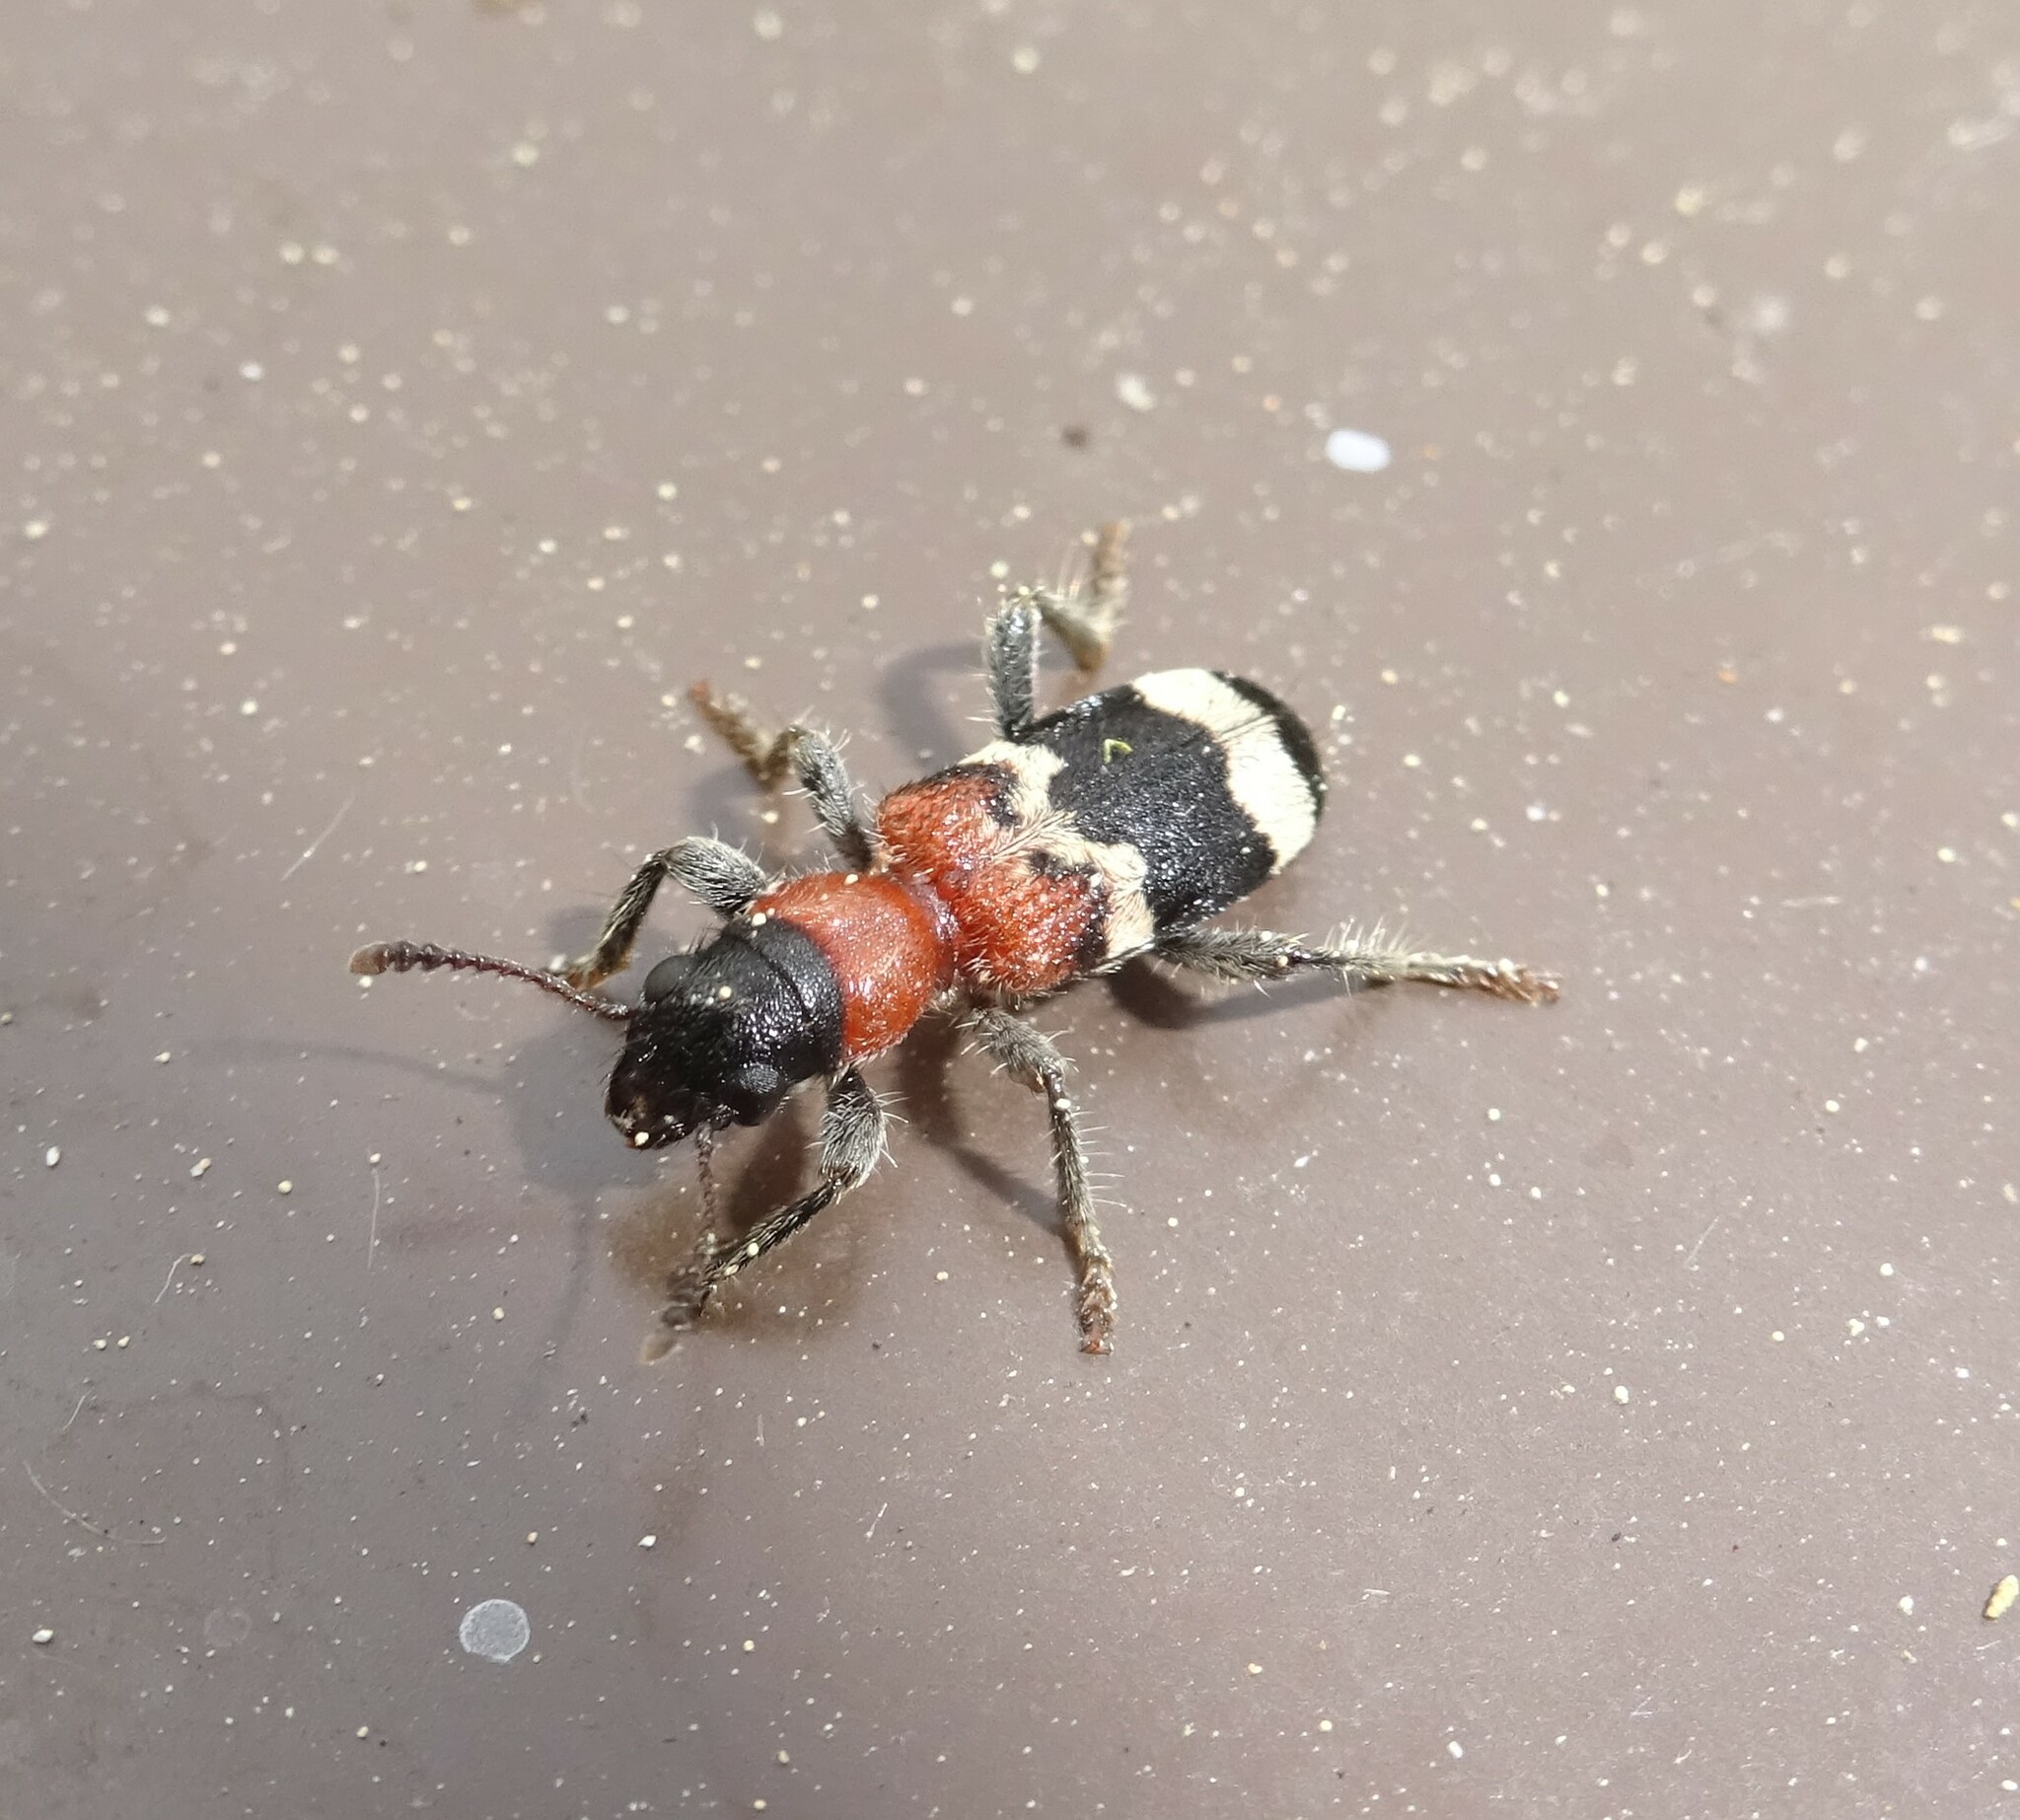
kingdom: Animalia
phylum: Arthropoda
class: Insecta
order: Coleoptera
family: Cleridae
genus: Thanasimus
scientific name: Thanasimus formicarius
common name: Ant beetle
